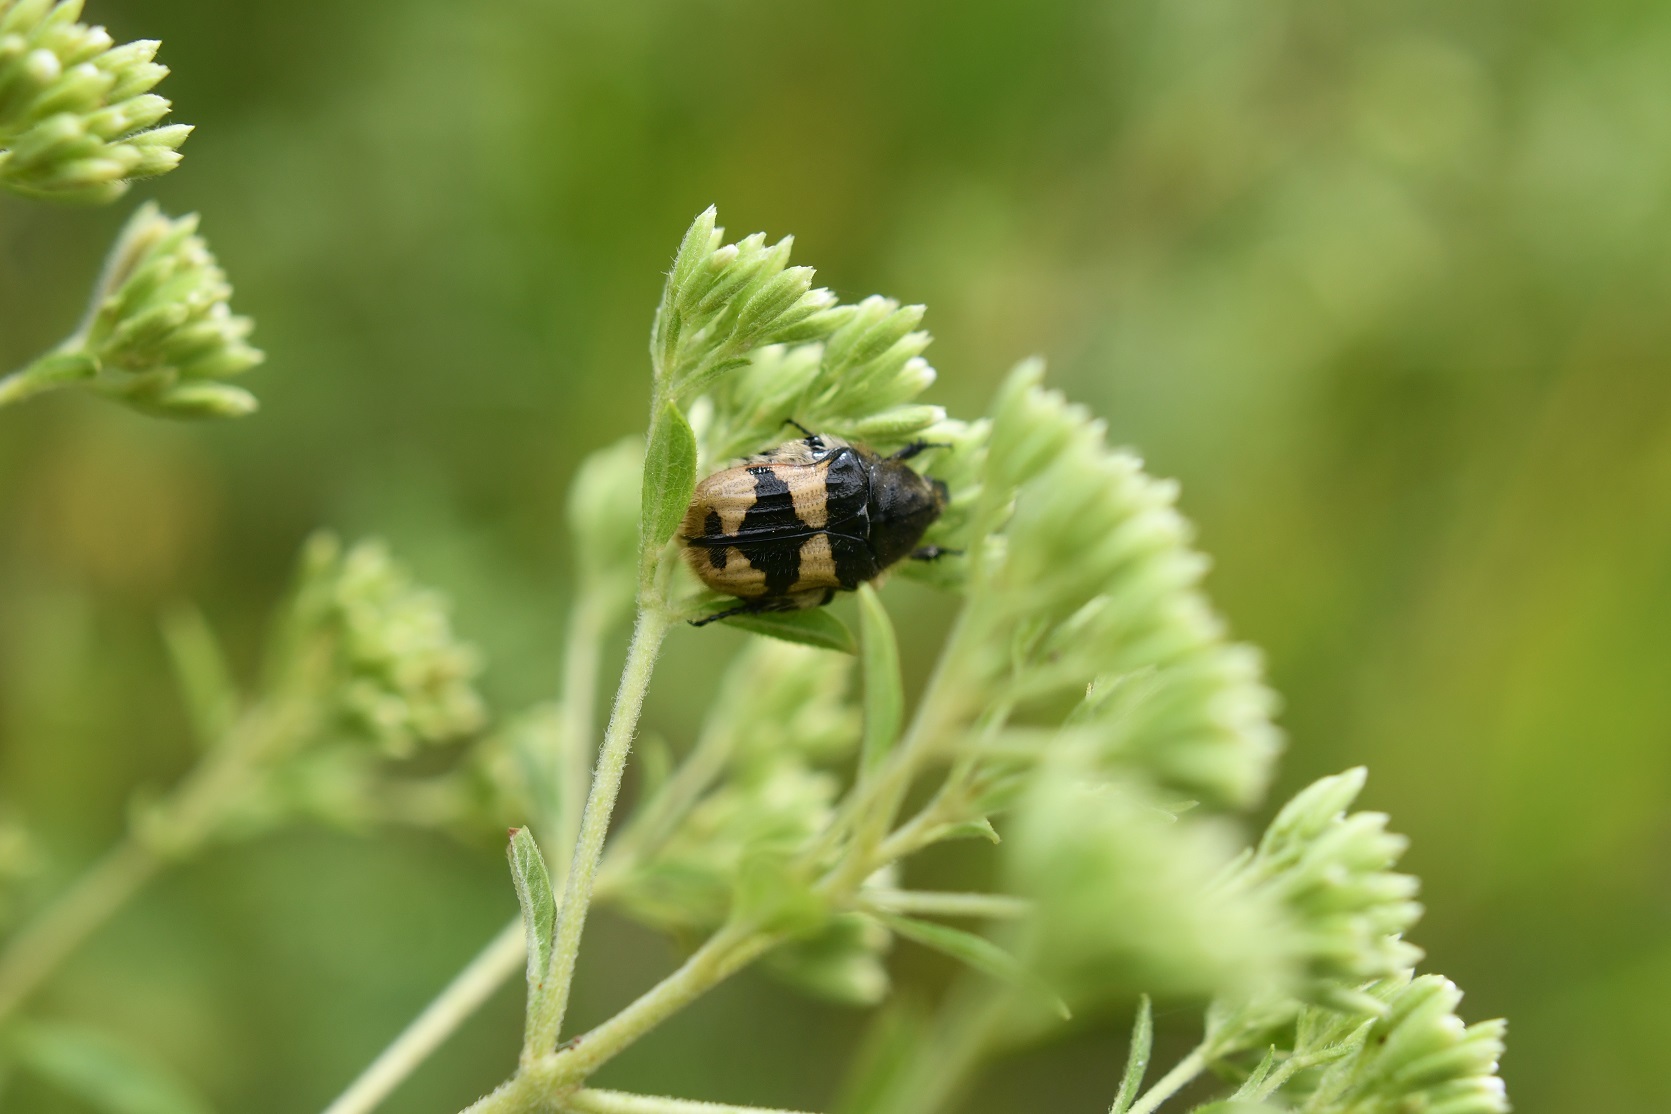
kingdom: Animalia
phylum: Arthropoda
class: Insecta
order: Coleoptera
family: Scarabaeidae
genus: Euphoria
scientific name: Euphoria basalis
